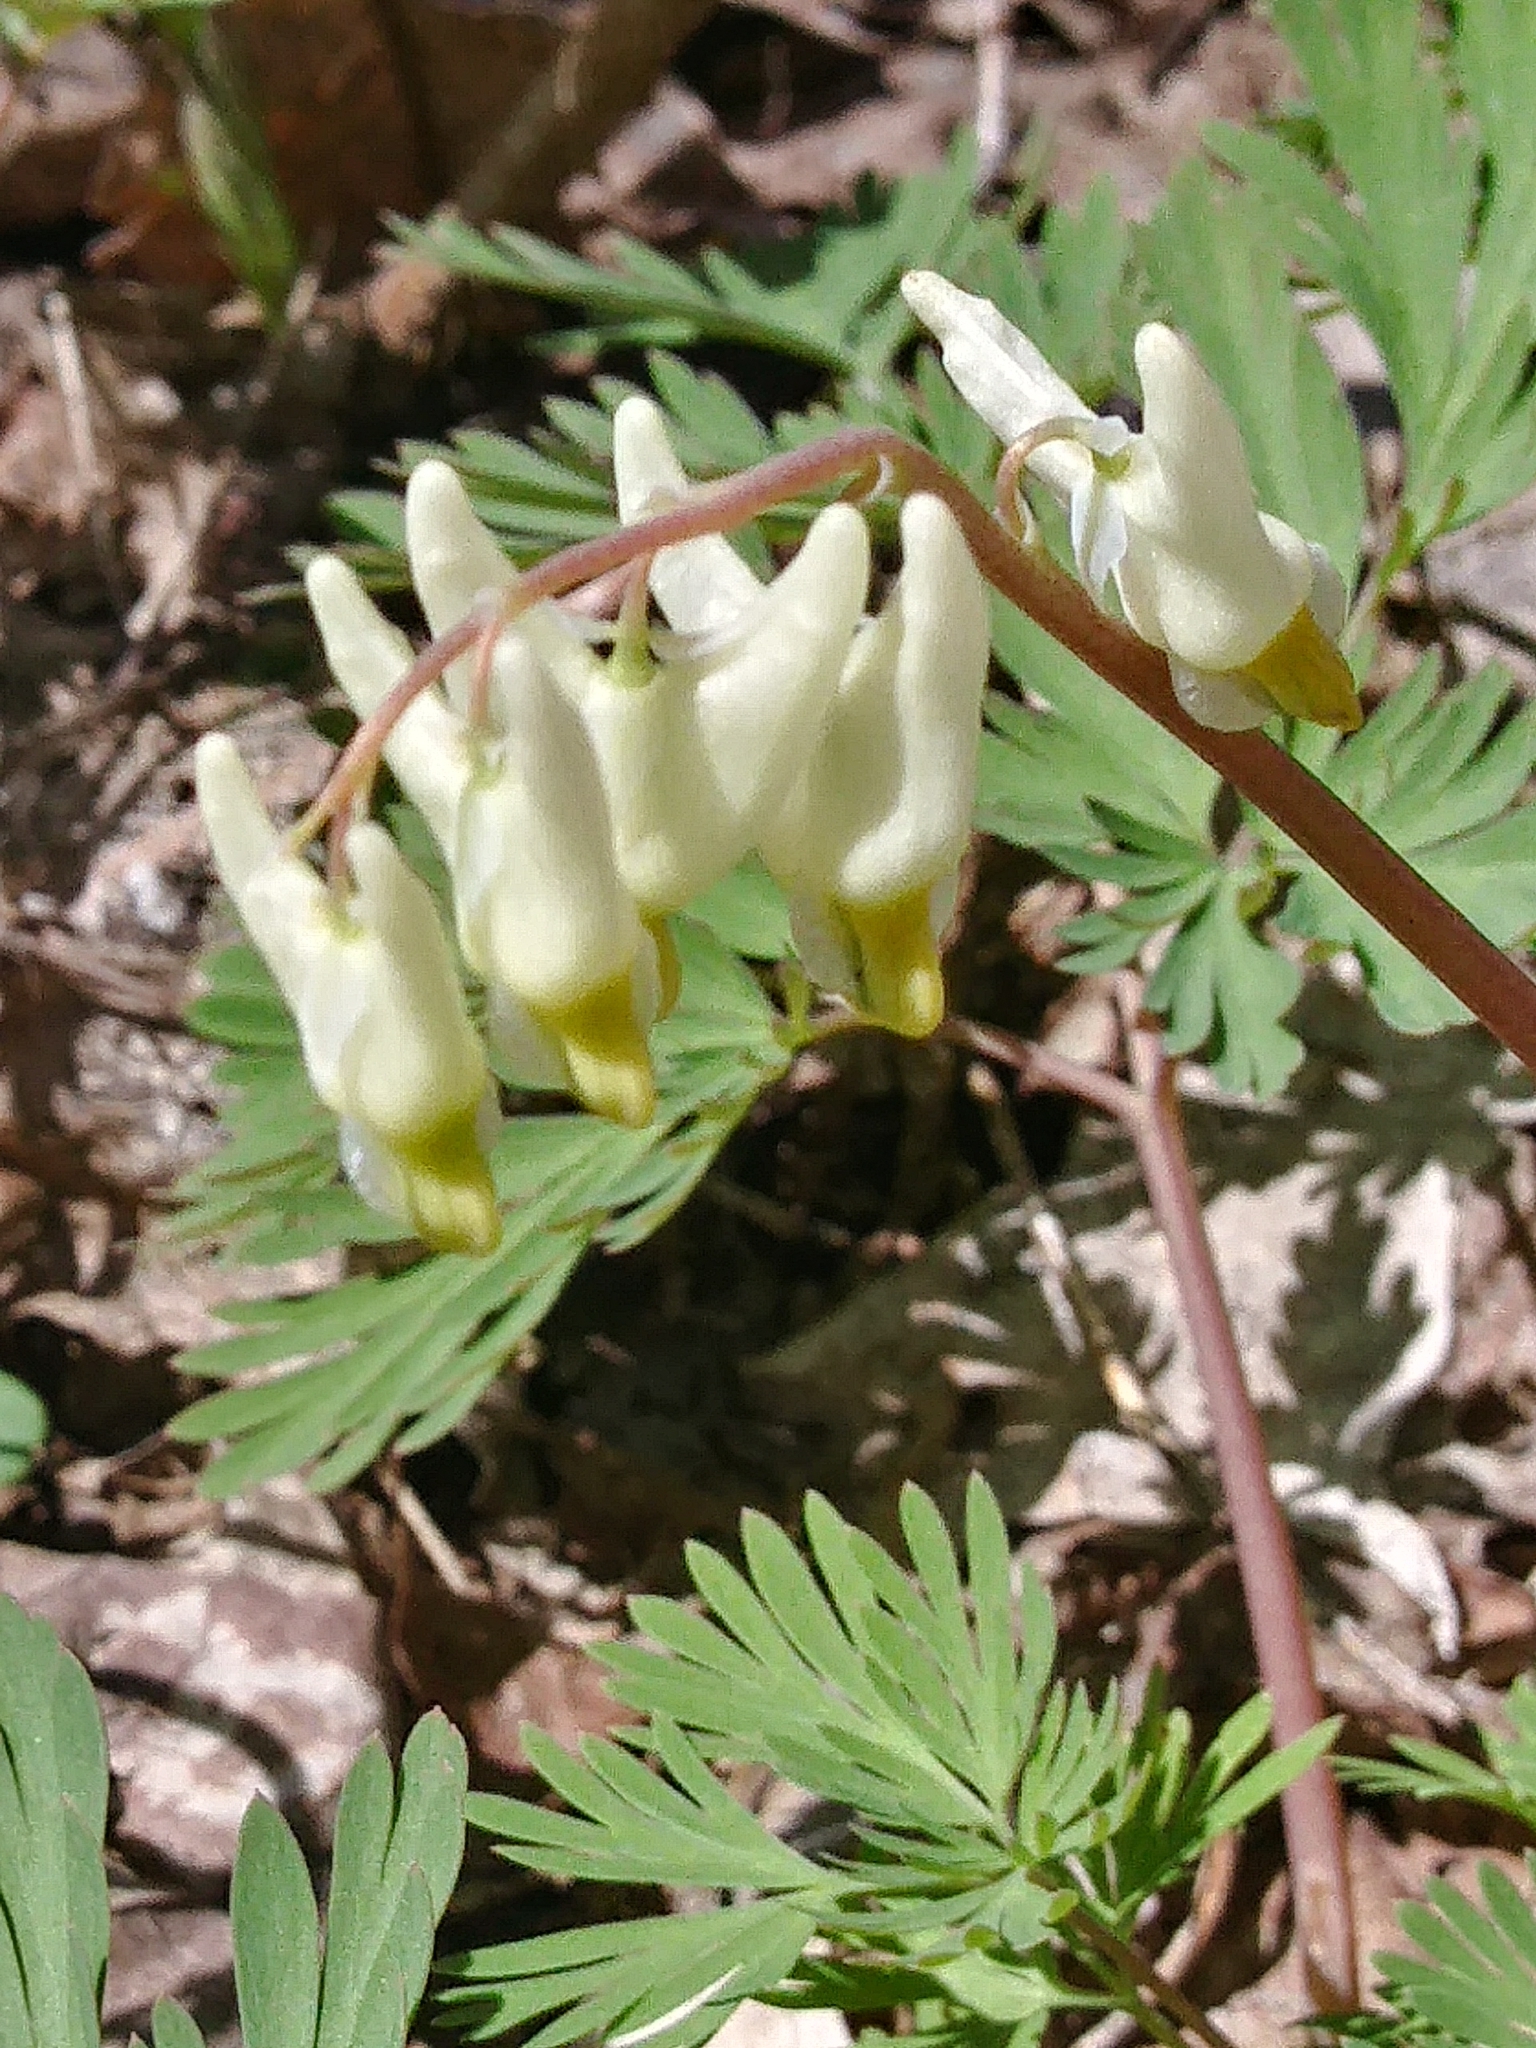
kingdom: Plantae
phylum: Tracheophyta
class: Magnoliopsida
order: Ranunculales
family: Papaveraceae
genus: Dicentra
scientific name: Dicentra cucullaria
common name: Dutchman's breeches
